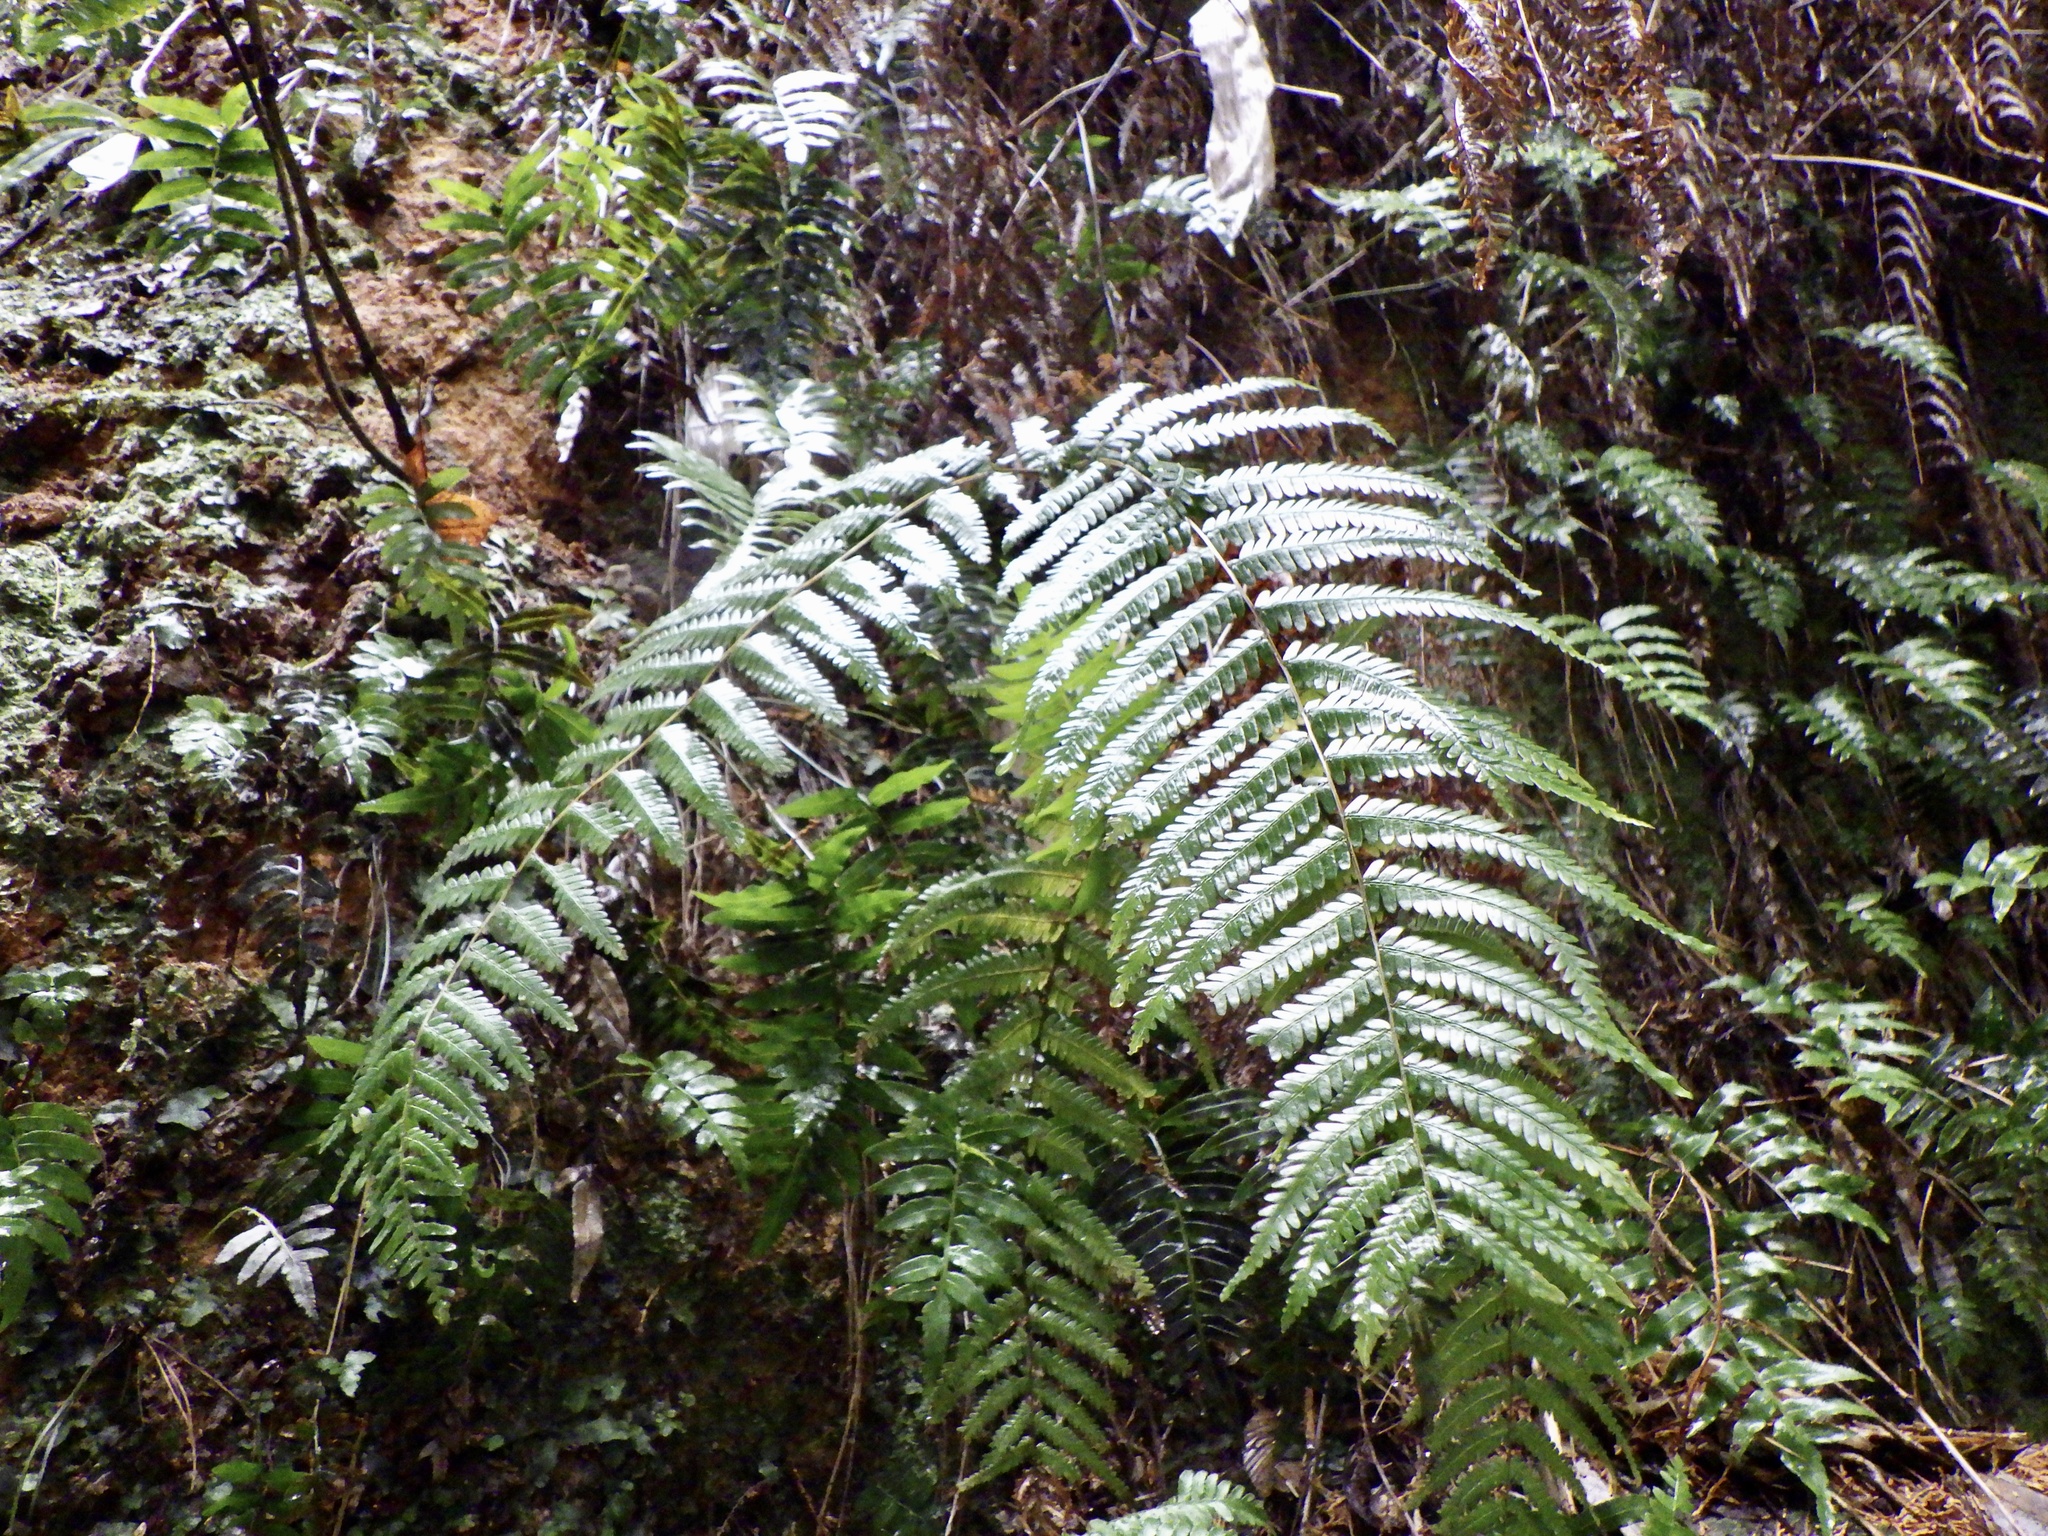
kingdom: Plantae
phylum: Tracheophyta
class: Polypodiopsida
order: Gleicheniales
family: Gleicheniaceae
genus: Diplopterygium
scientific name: Diplopterygium glaucum
